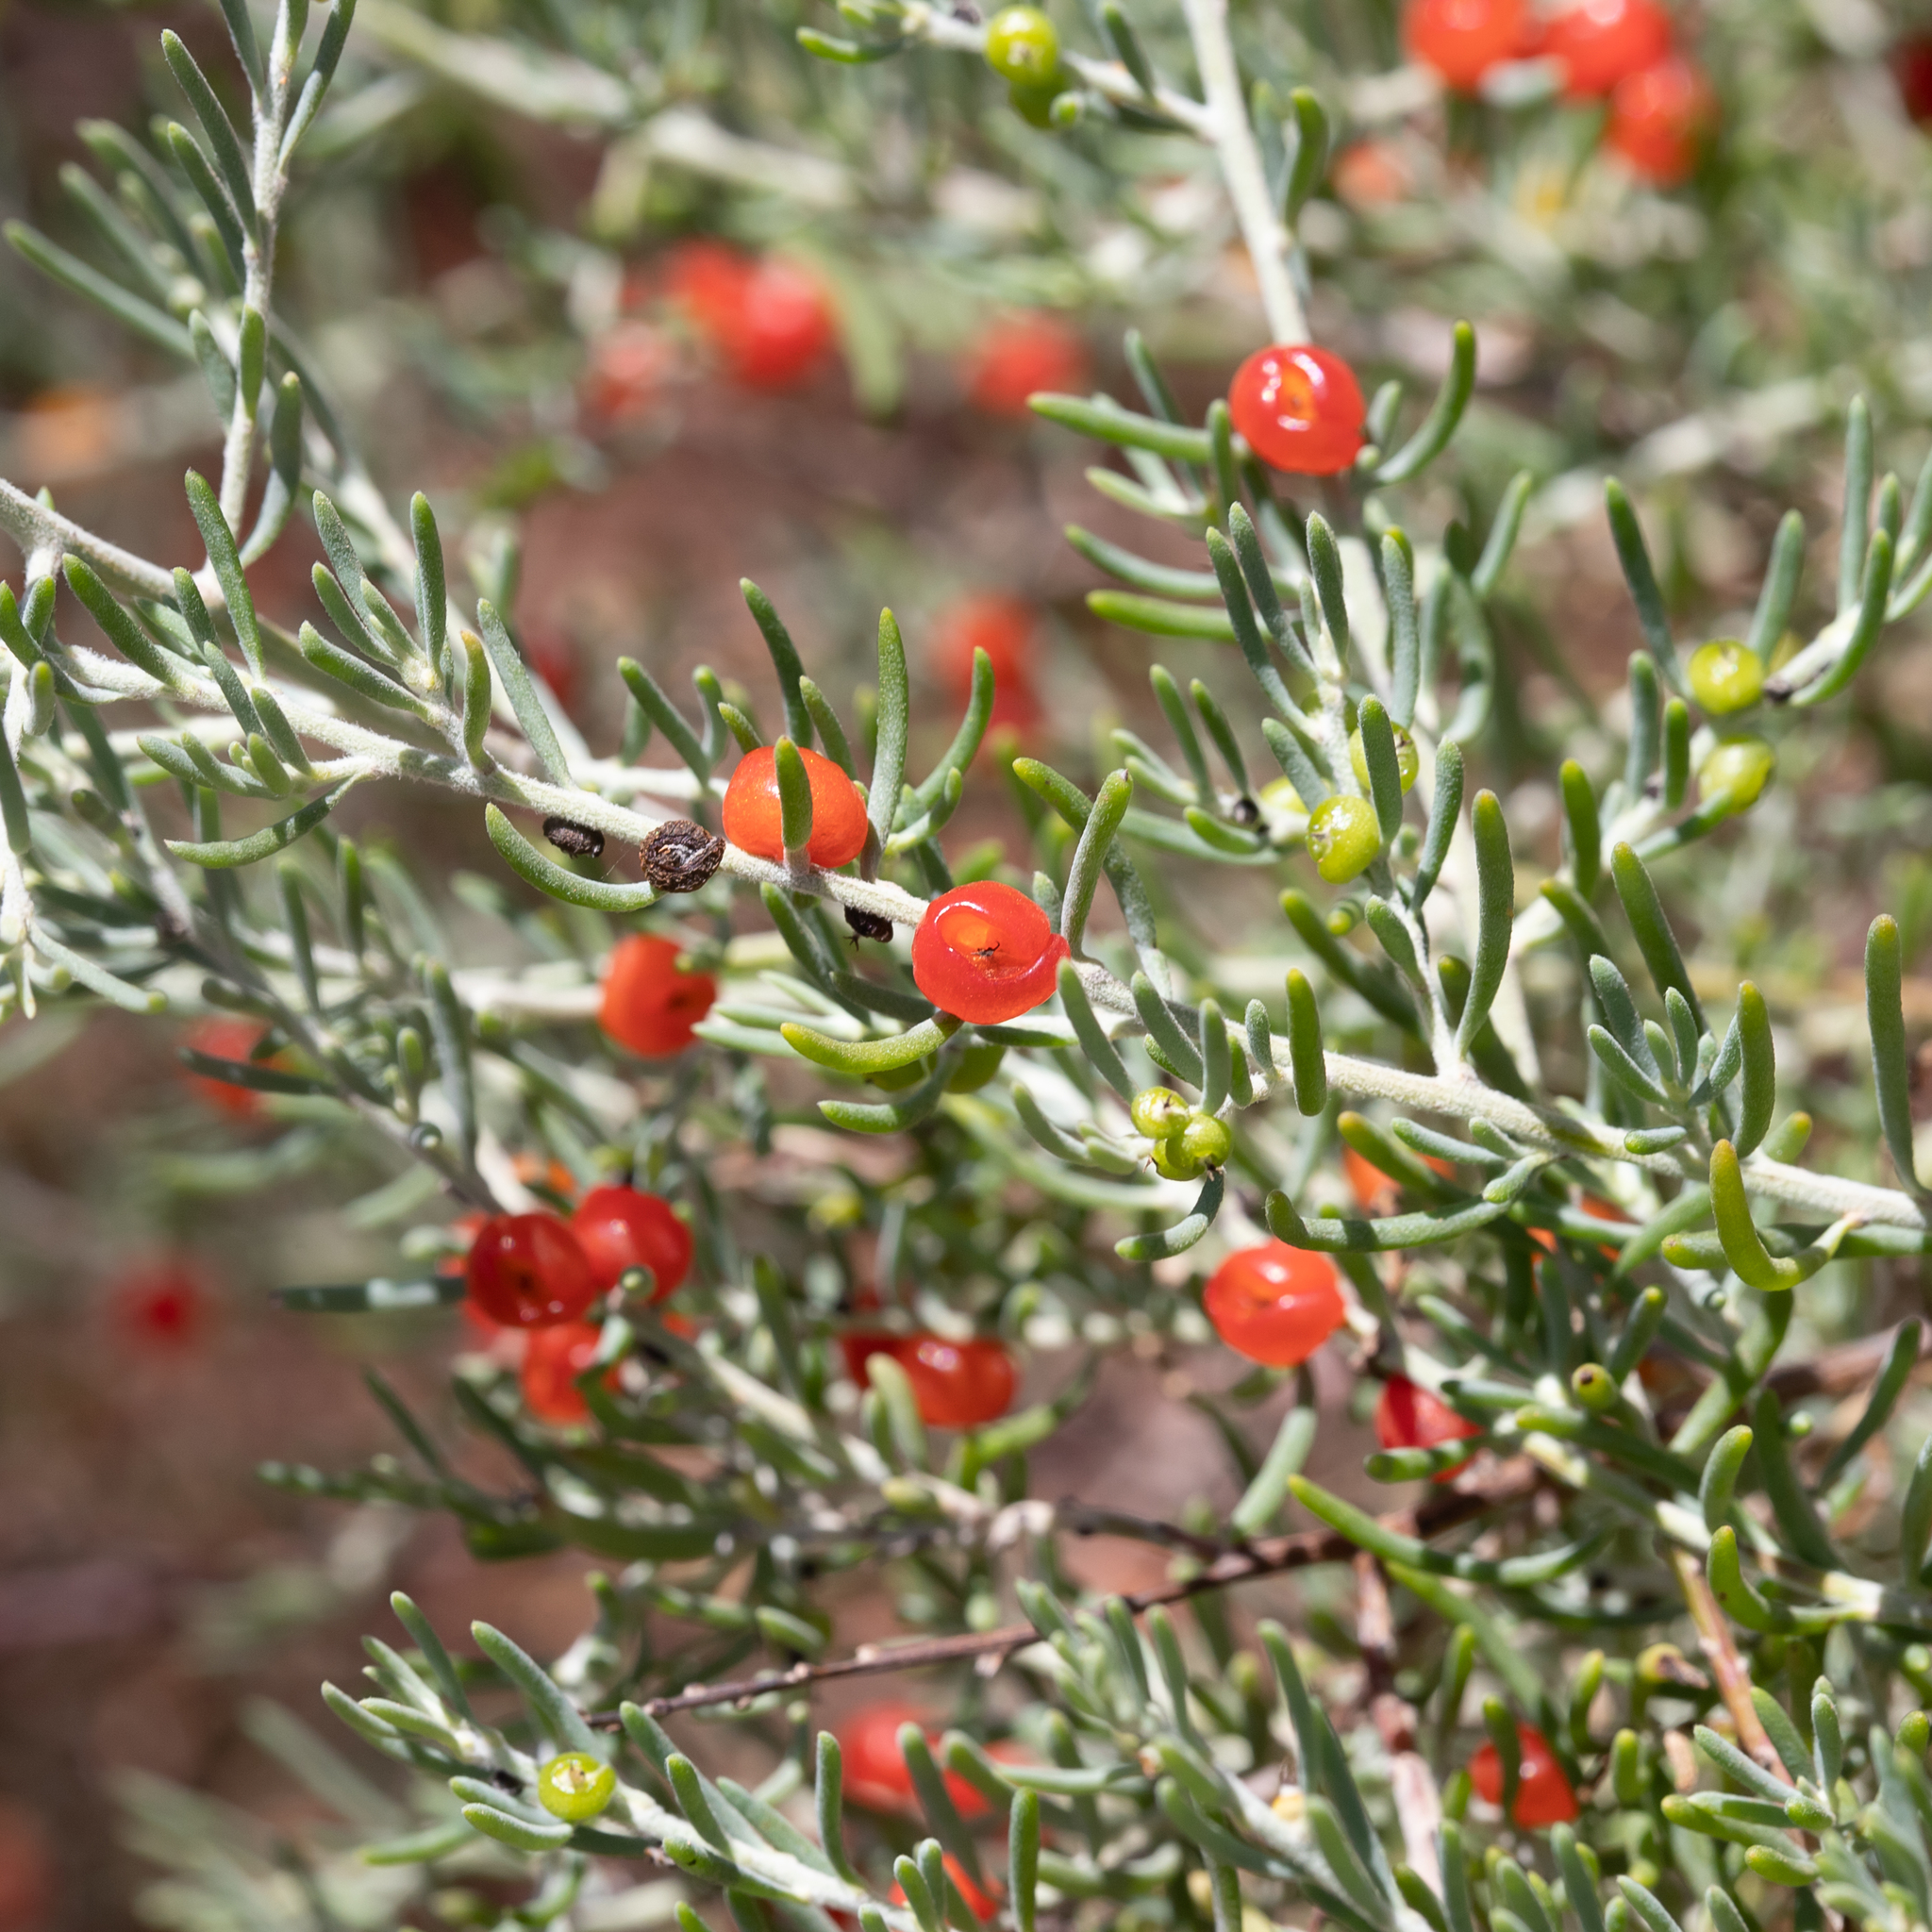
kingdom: Plantae
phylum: Tracheophyta
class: Magnoliopsida
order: Caryophyllales
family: Amaranthaceae
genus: Enchylaena
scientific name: Enchylaena tomentosa
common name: Ruby saltbush
